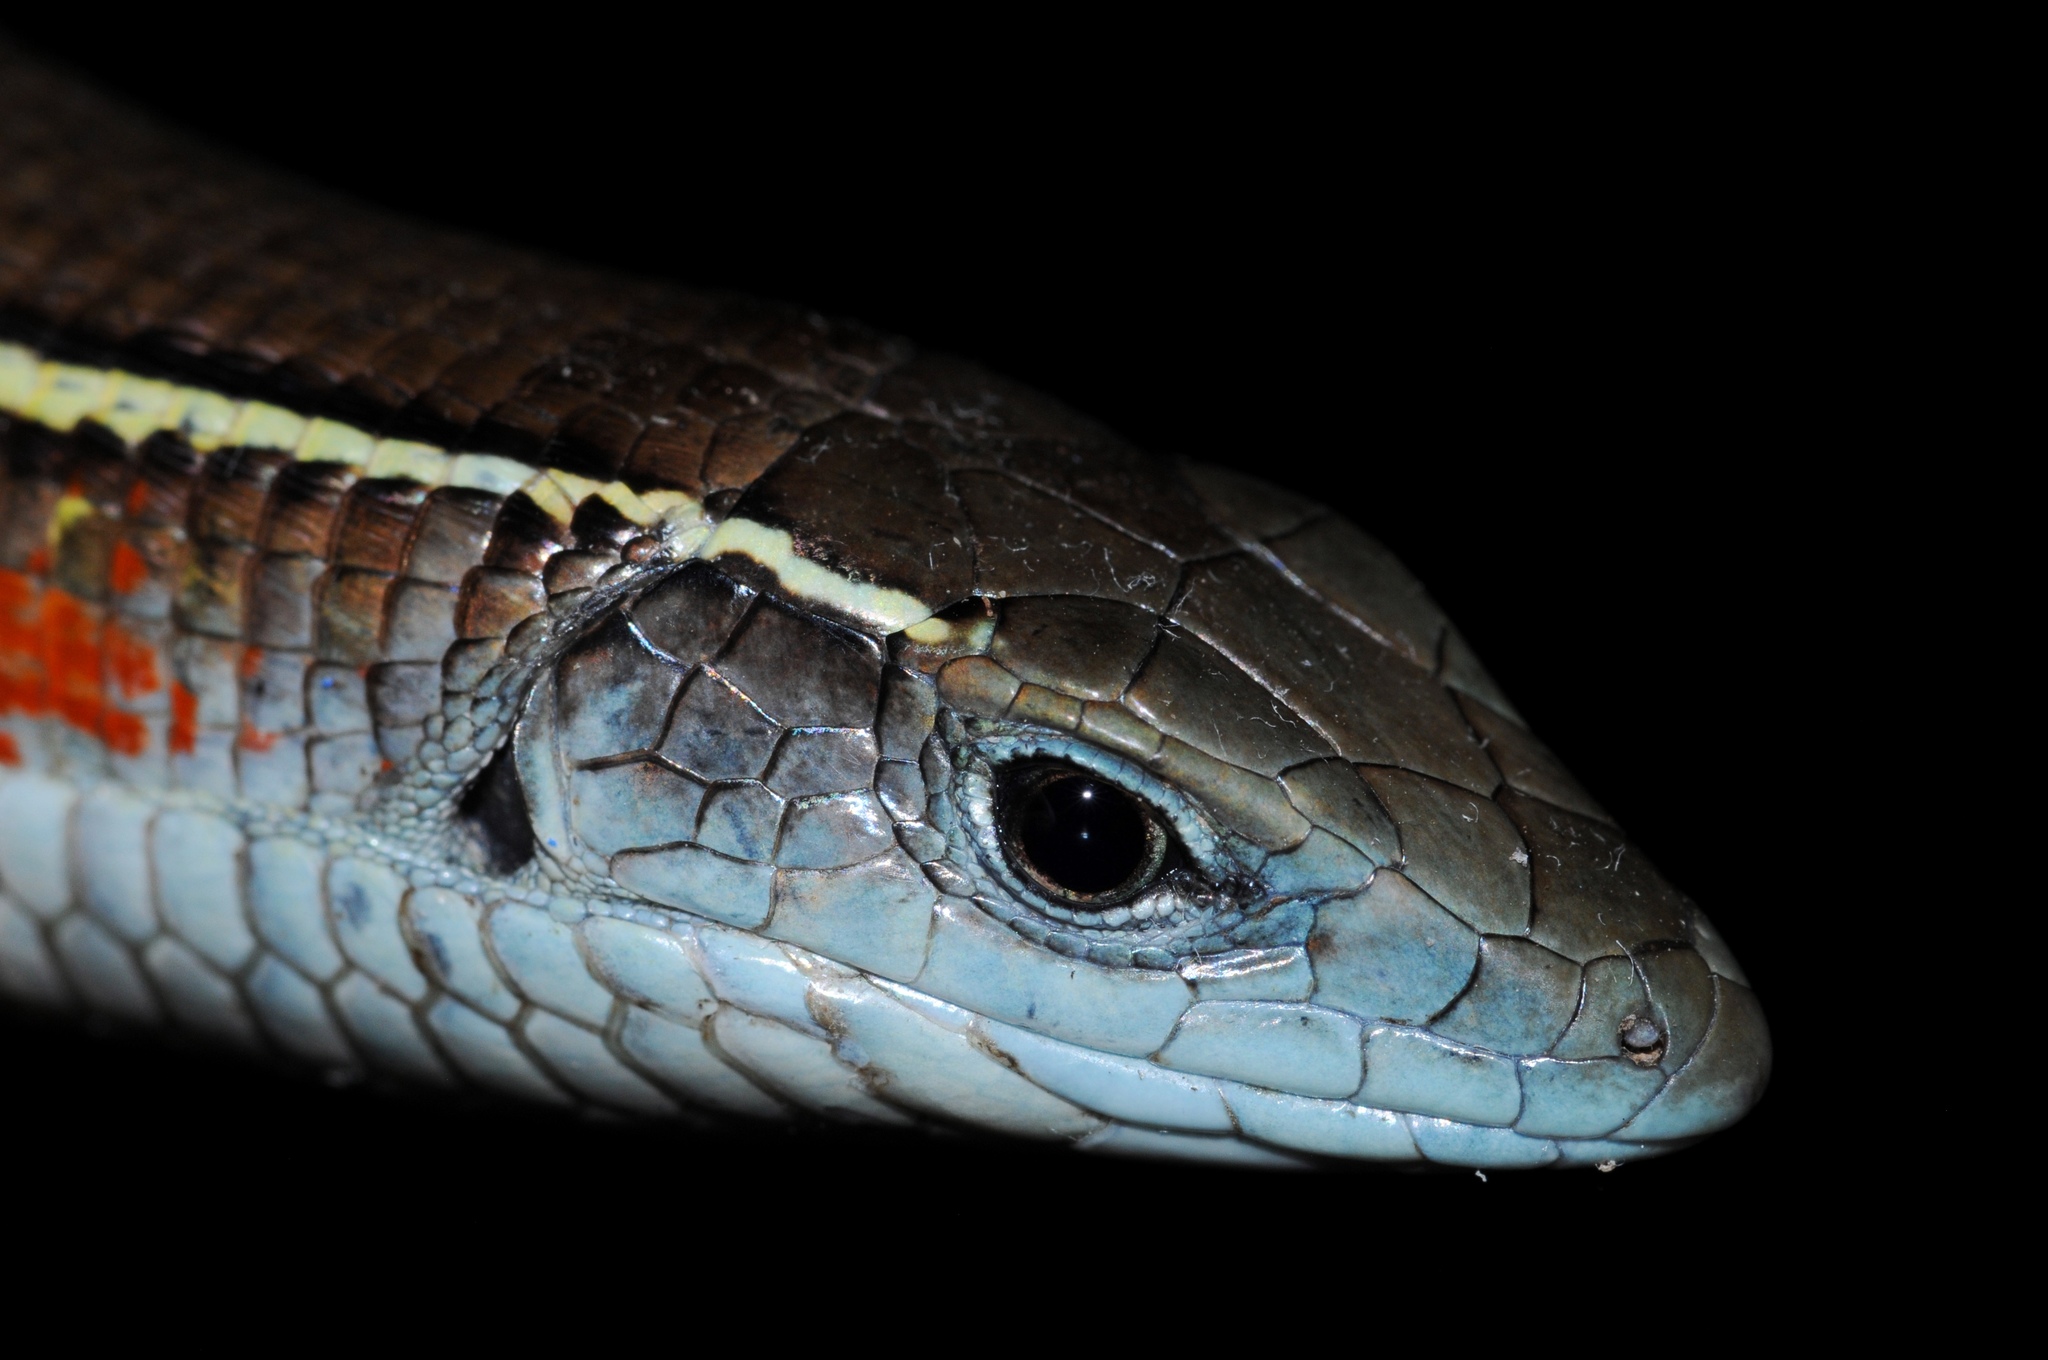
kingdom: Animalia
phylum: Chordata
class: Squamata
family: Gerrhosauridae
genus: Gerrhosaurus
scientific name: Gerrhosaurus flavigularis
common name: Yellow-throated plated lizard
